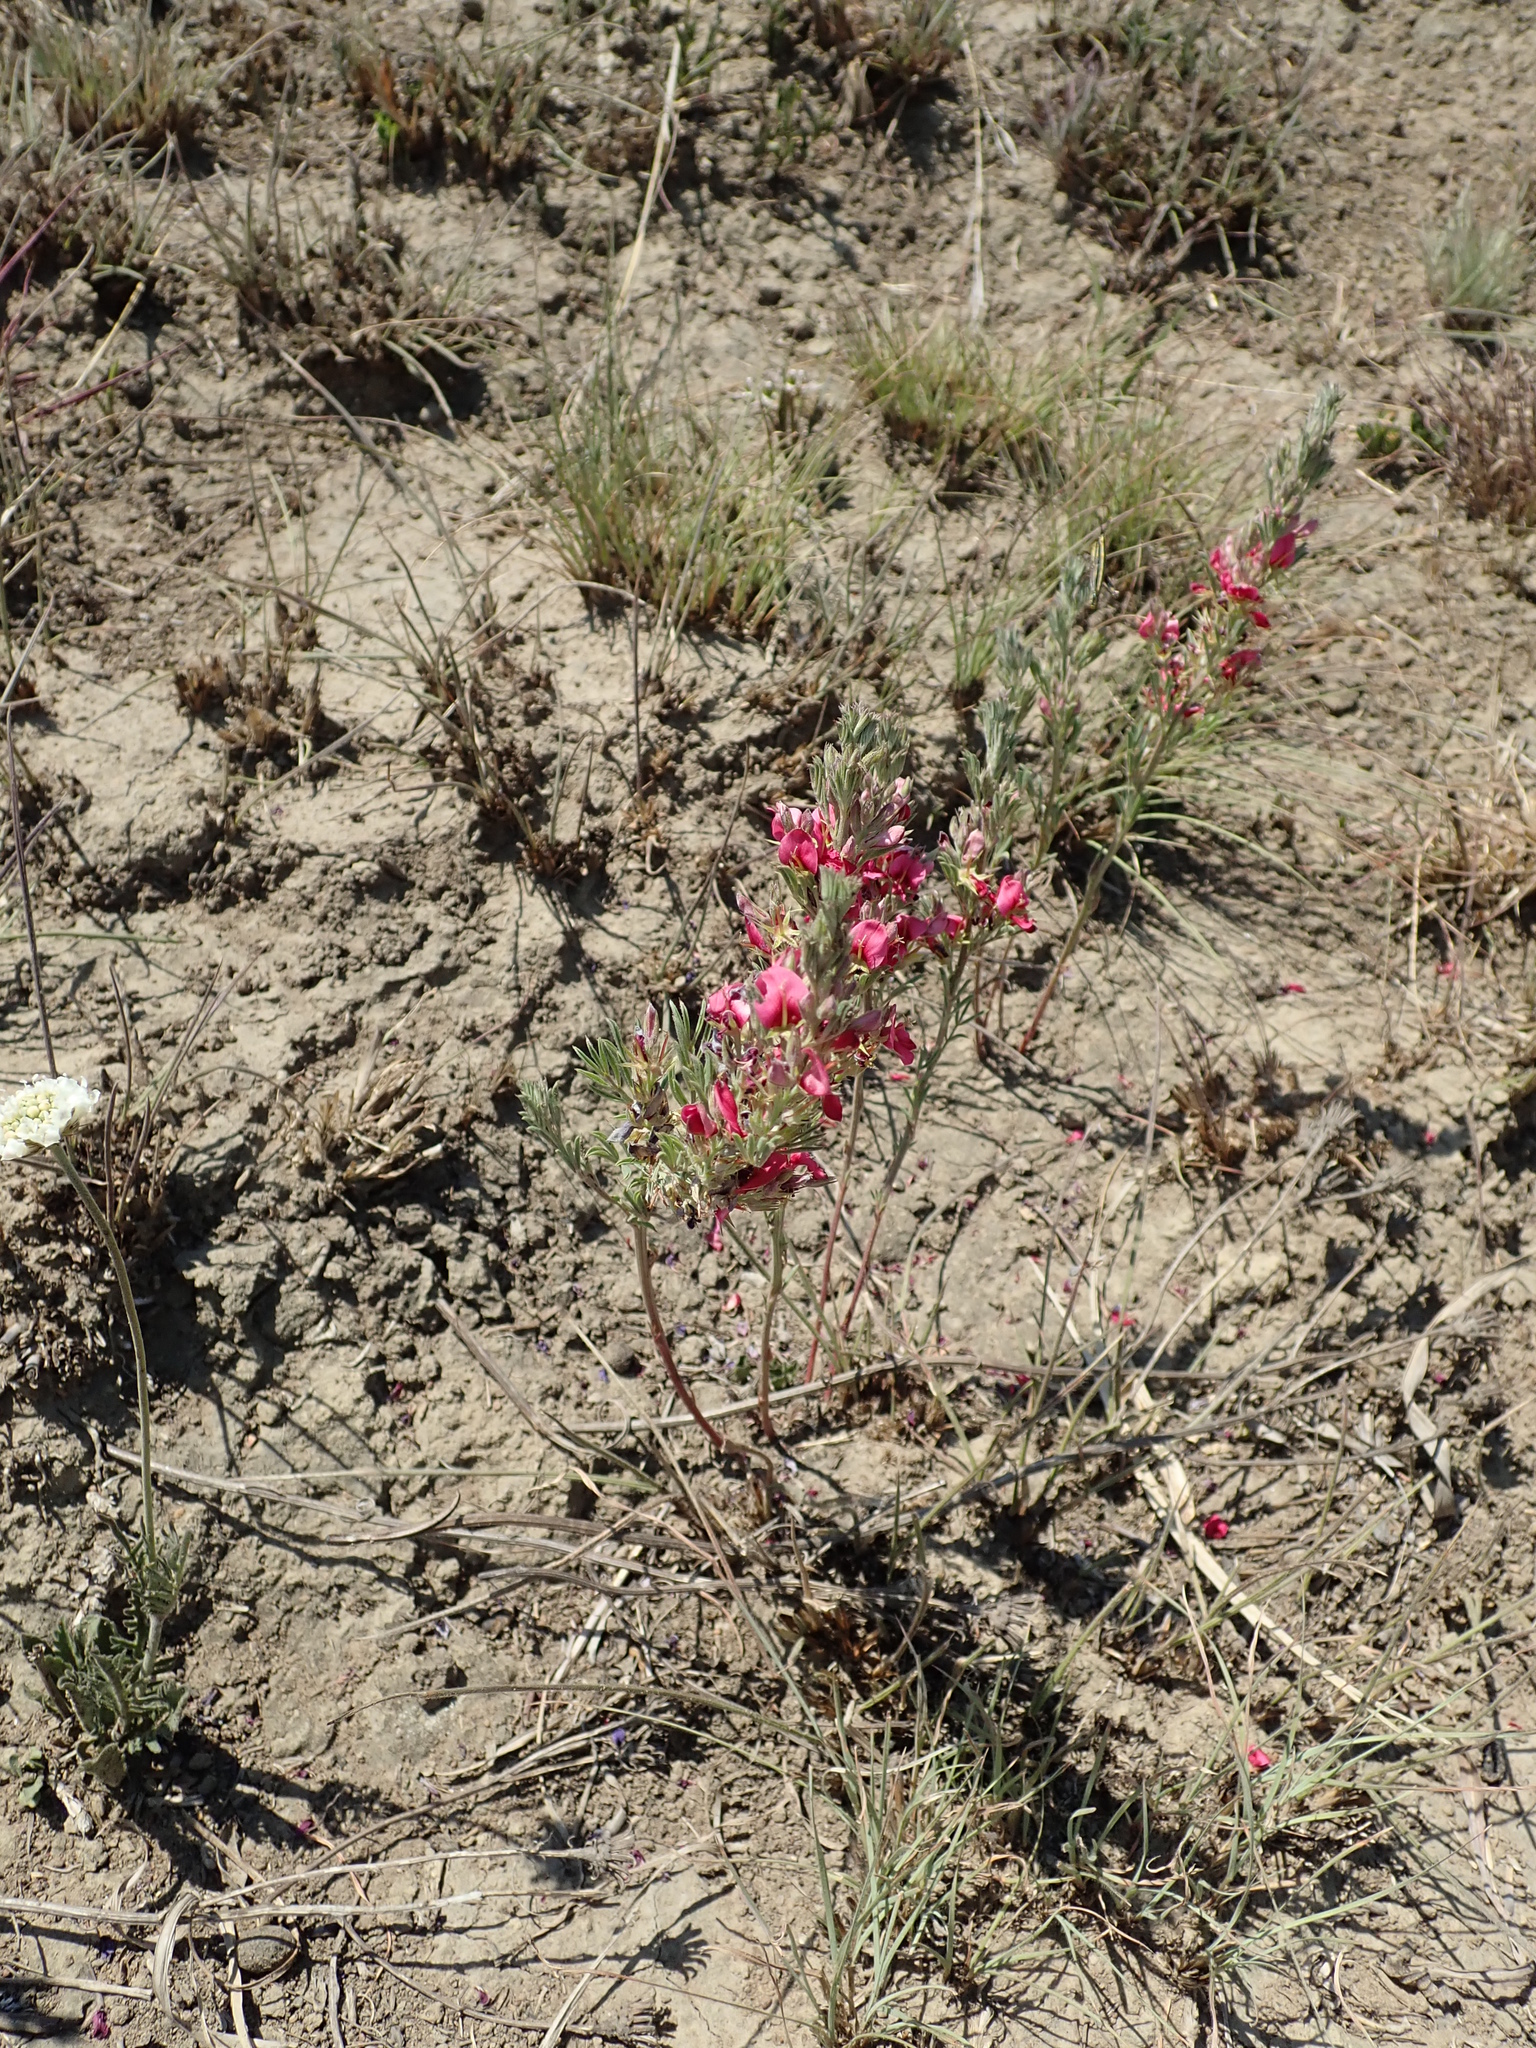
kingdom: Plantae
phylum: Tracheophyta
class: Magnoliopsida
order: Fabales
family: Fabaceae
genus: Indigofera
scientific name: Indigofera hilaris
